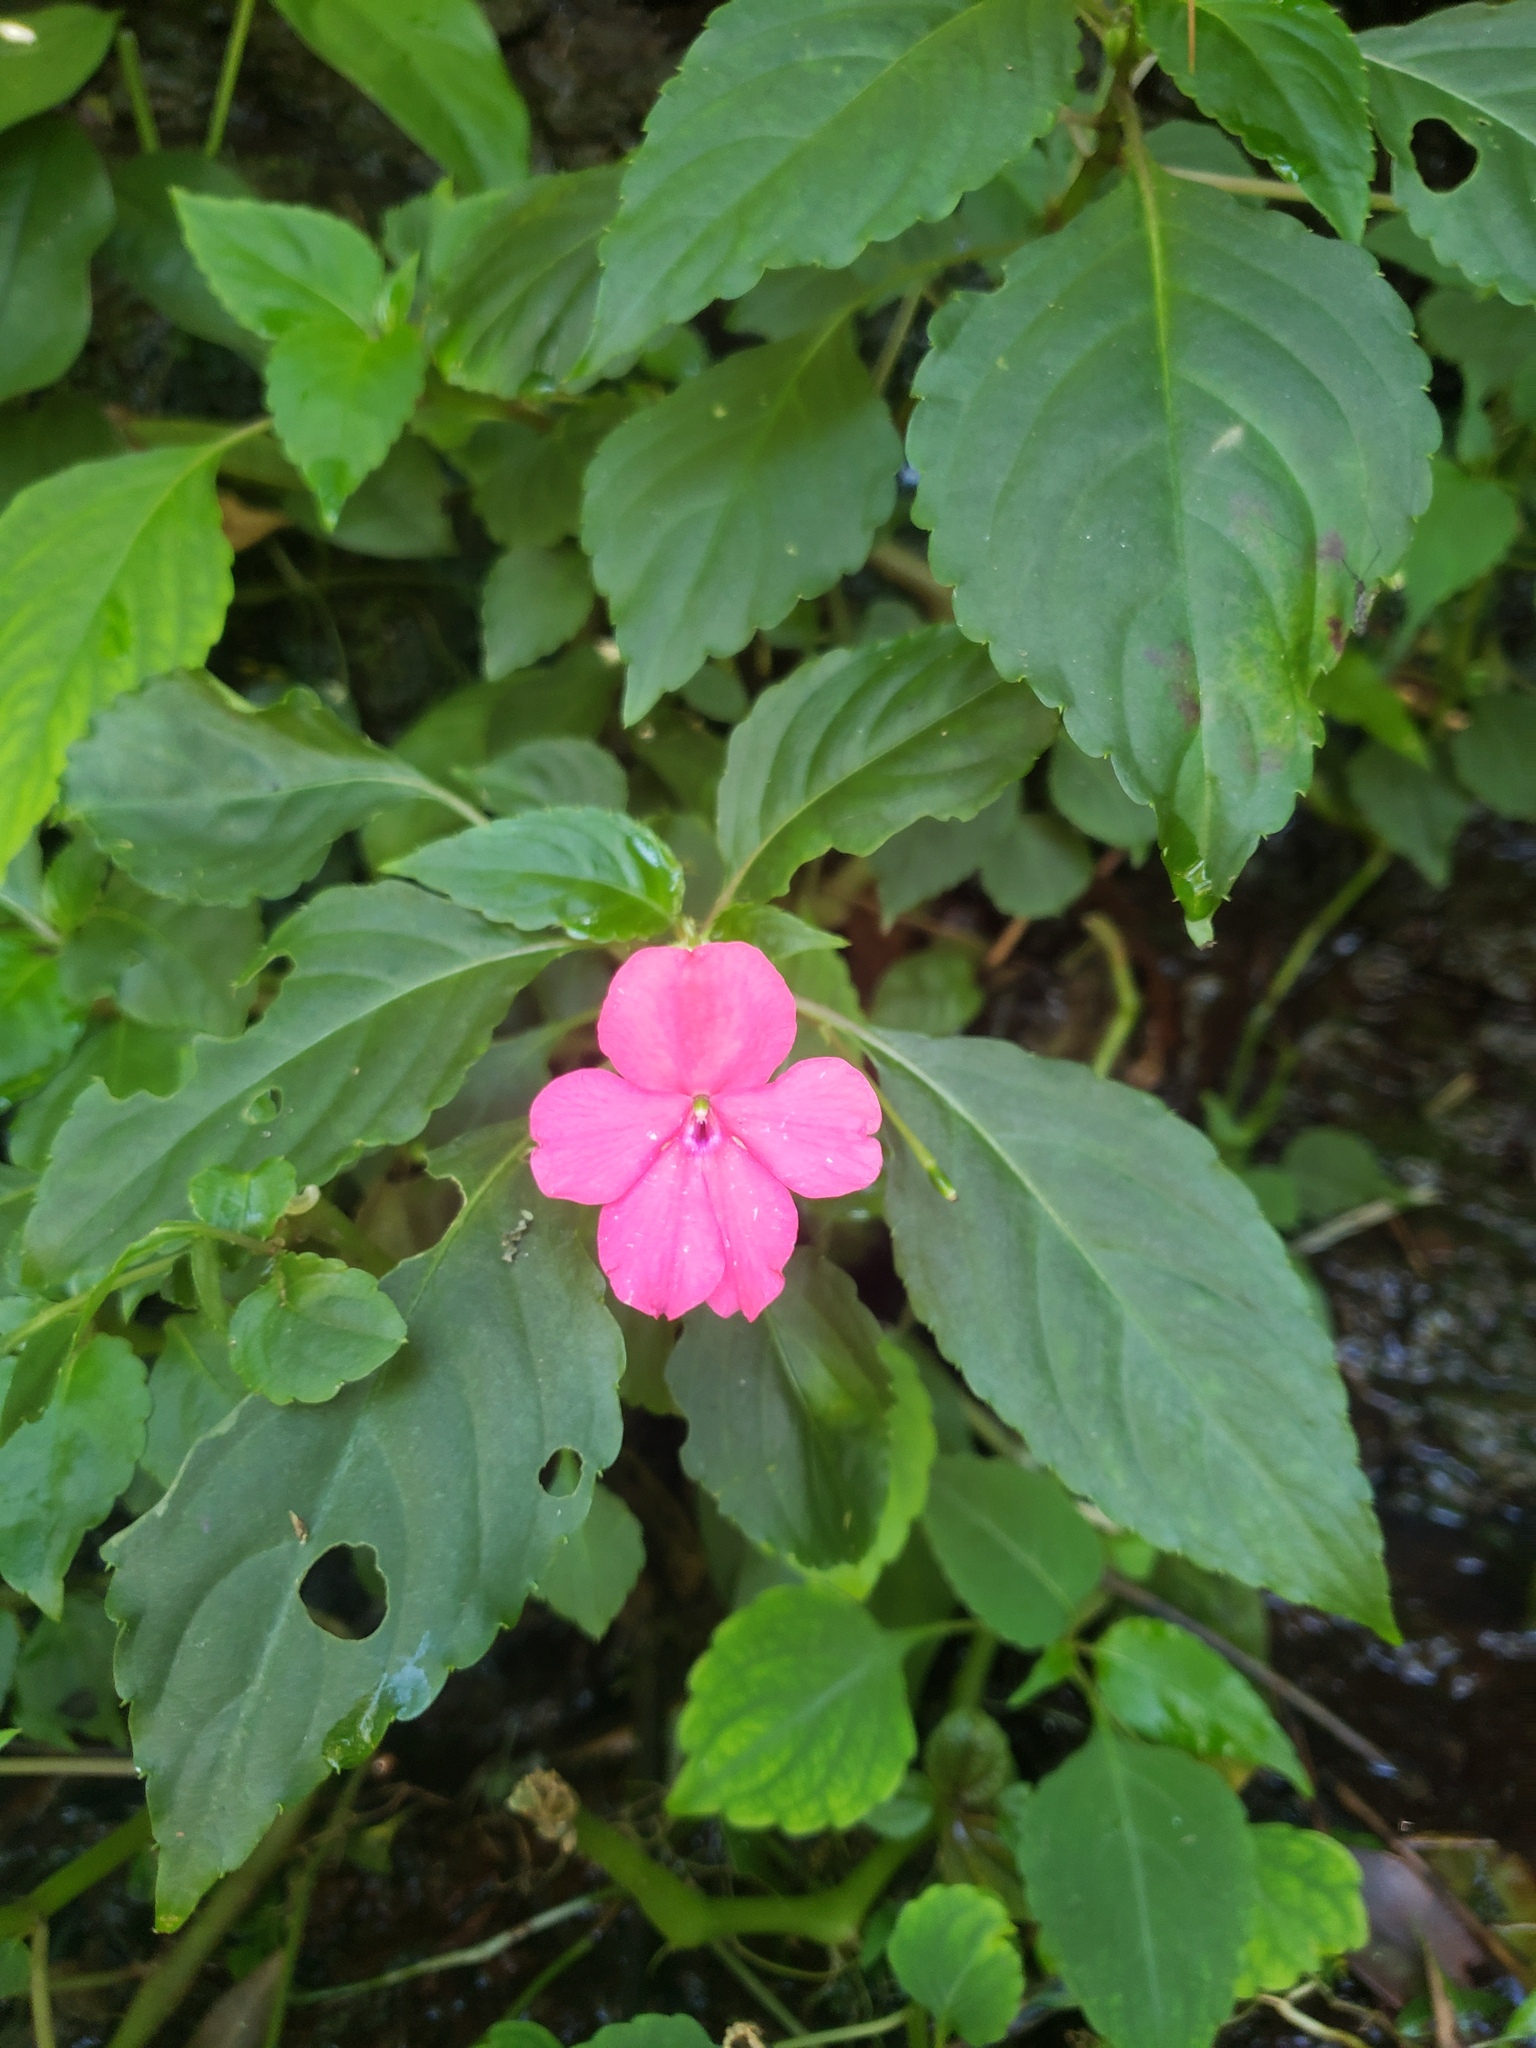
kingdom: Plantae
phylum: Tracheophyta
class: Magnoliopsida
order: Ericales
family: Balsaminaceae
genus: Impatiens
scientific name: Impatiens walleriana
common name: Buzzy lizzy
